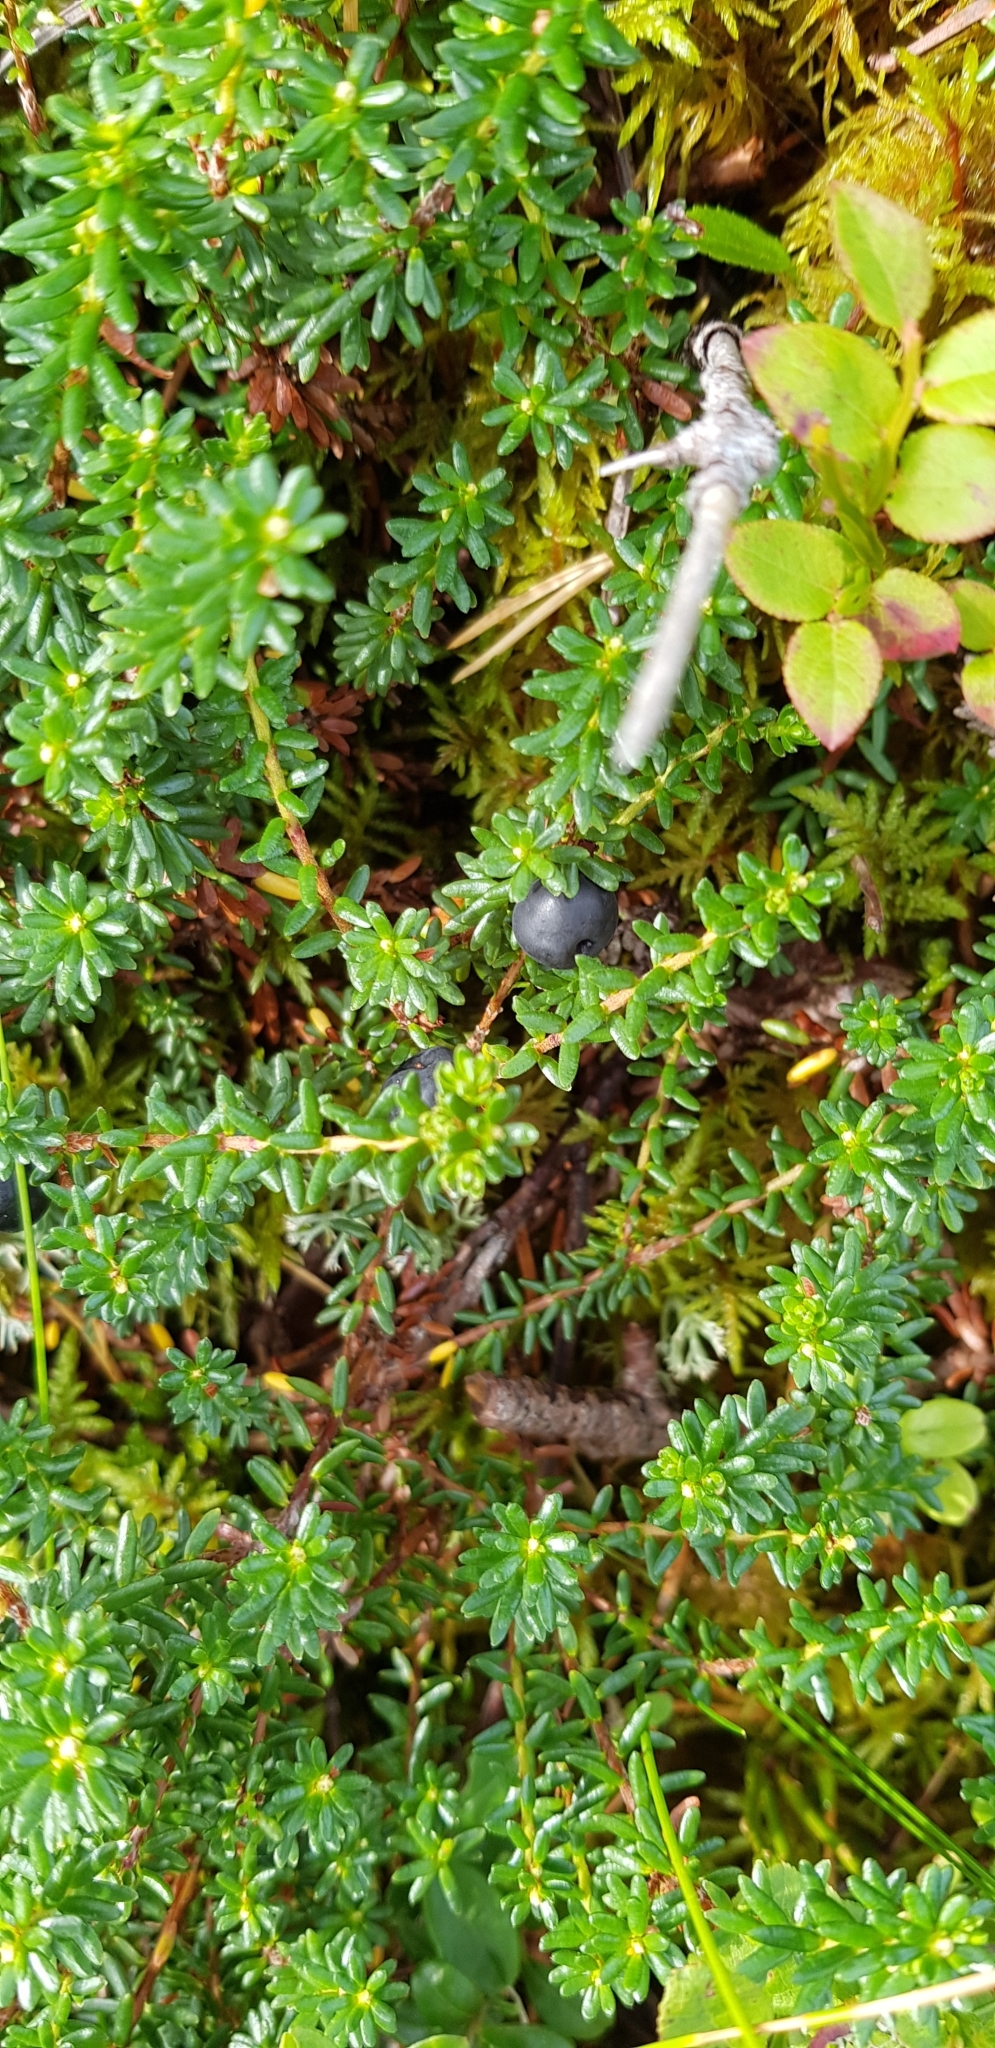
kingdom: Plantae
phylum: Tracheophyta
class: Magnoliopsida
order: Ericales
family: Ericaceae
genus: Empetrum
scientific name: Empetrum nigrum
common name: Black crowberry
